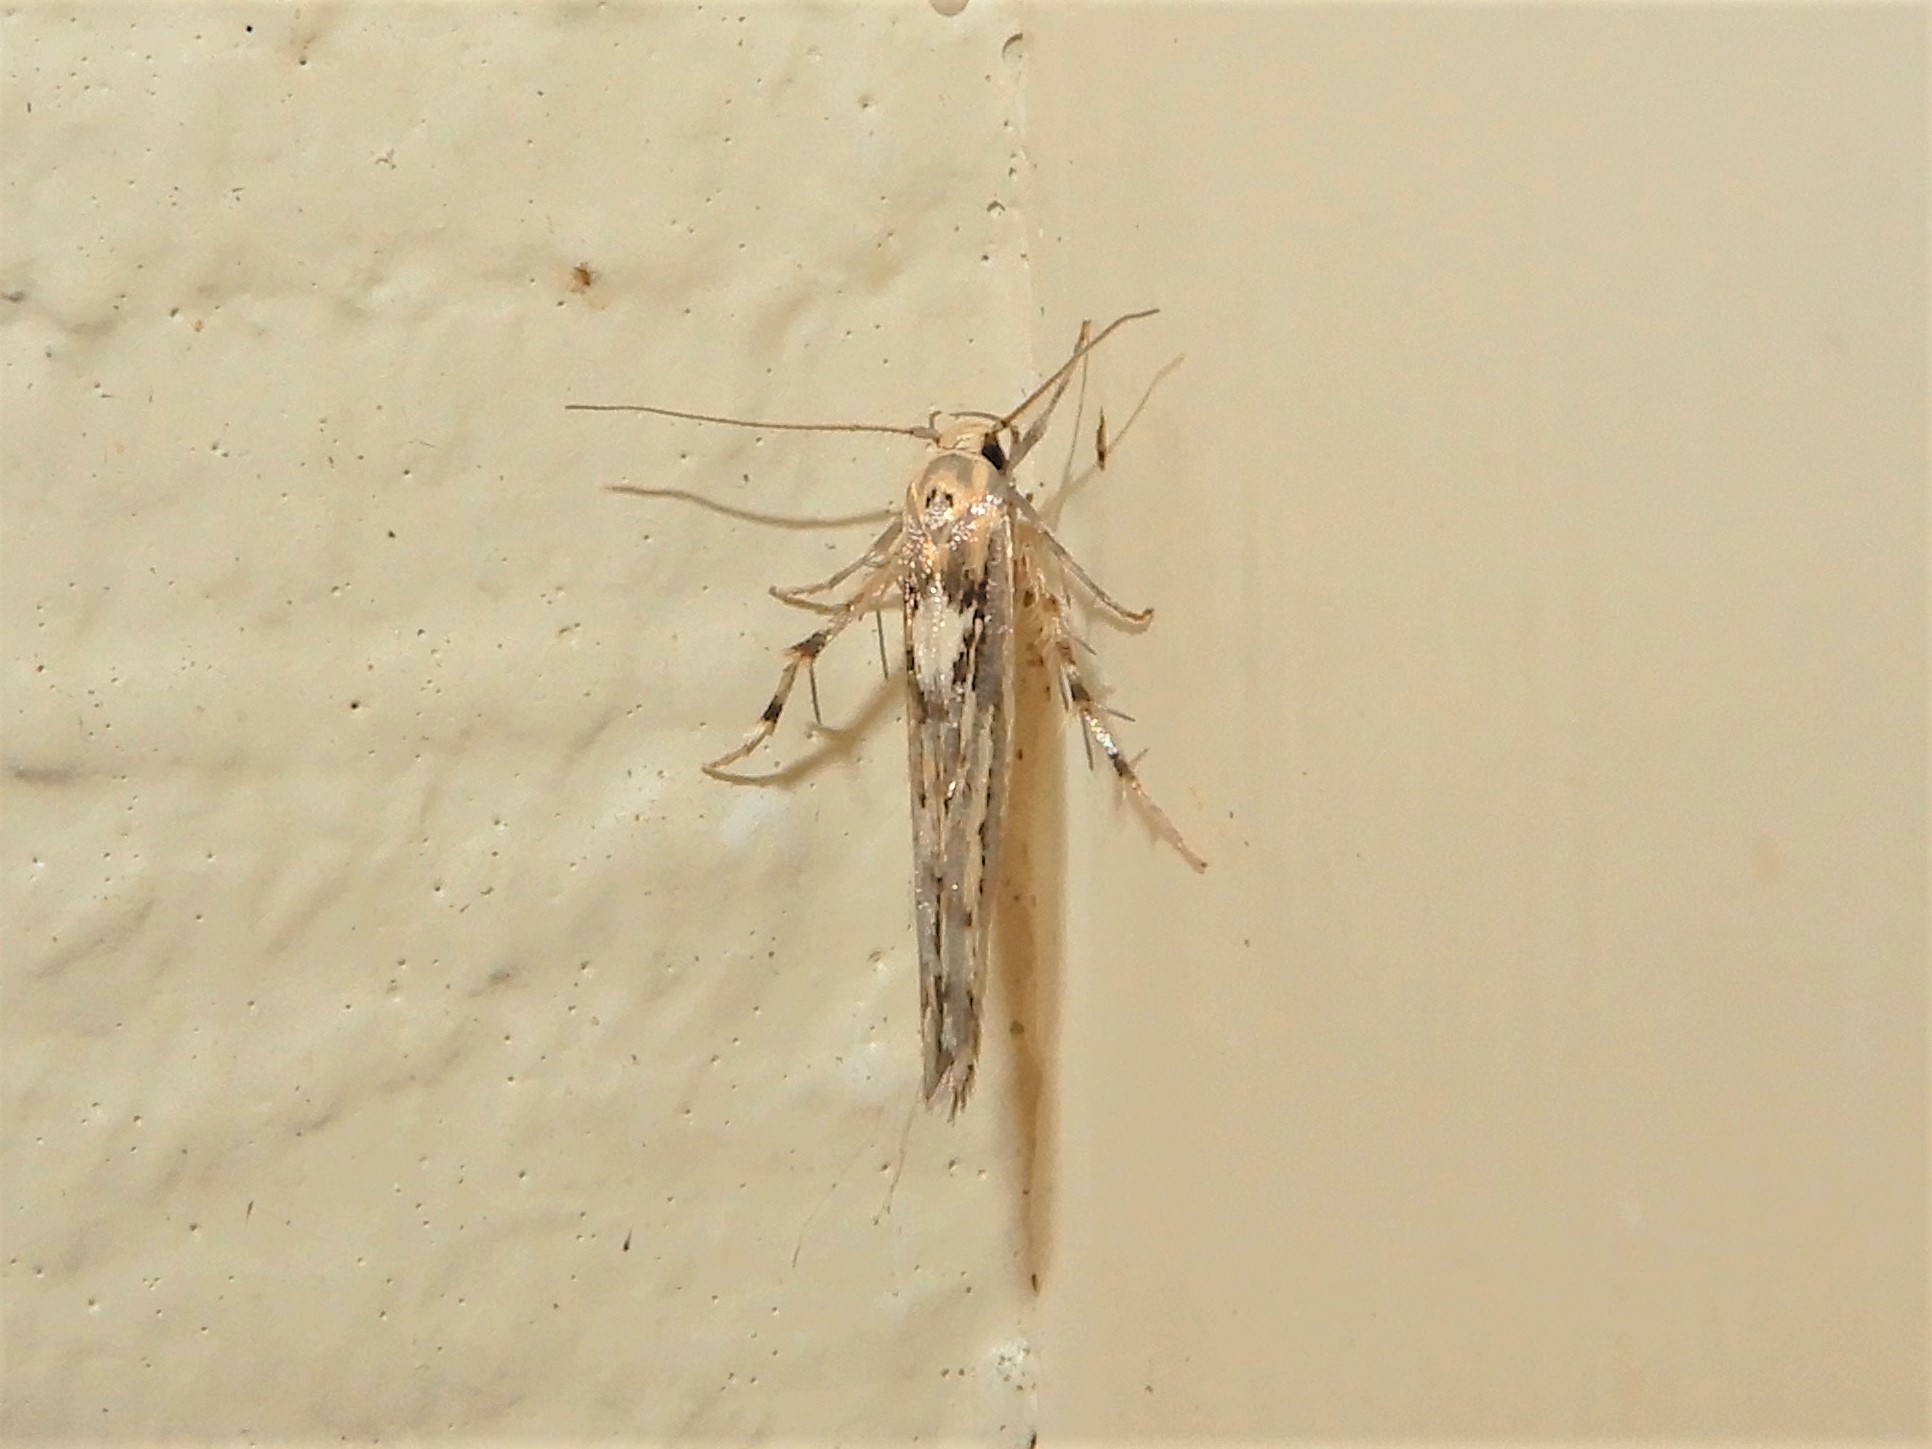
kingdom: Animalia
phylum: Arthropoda
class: Insecta
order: Lepidoptera
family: Stathmopodidae
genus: Stathmopoda
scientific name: Stathmopoda plumbiflua
